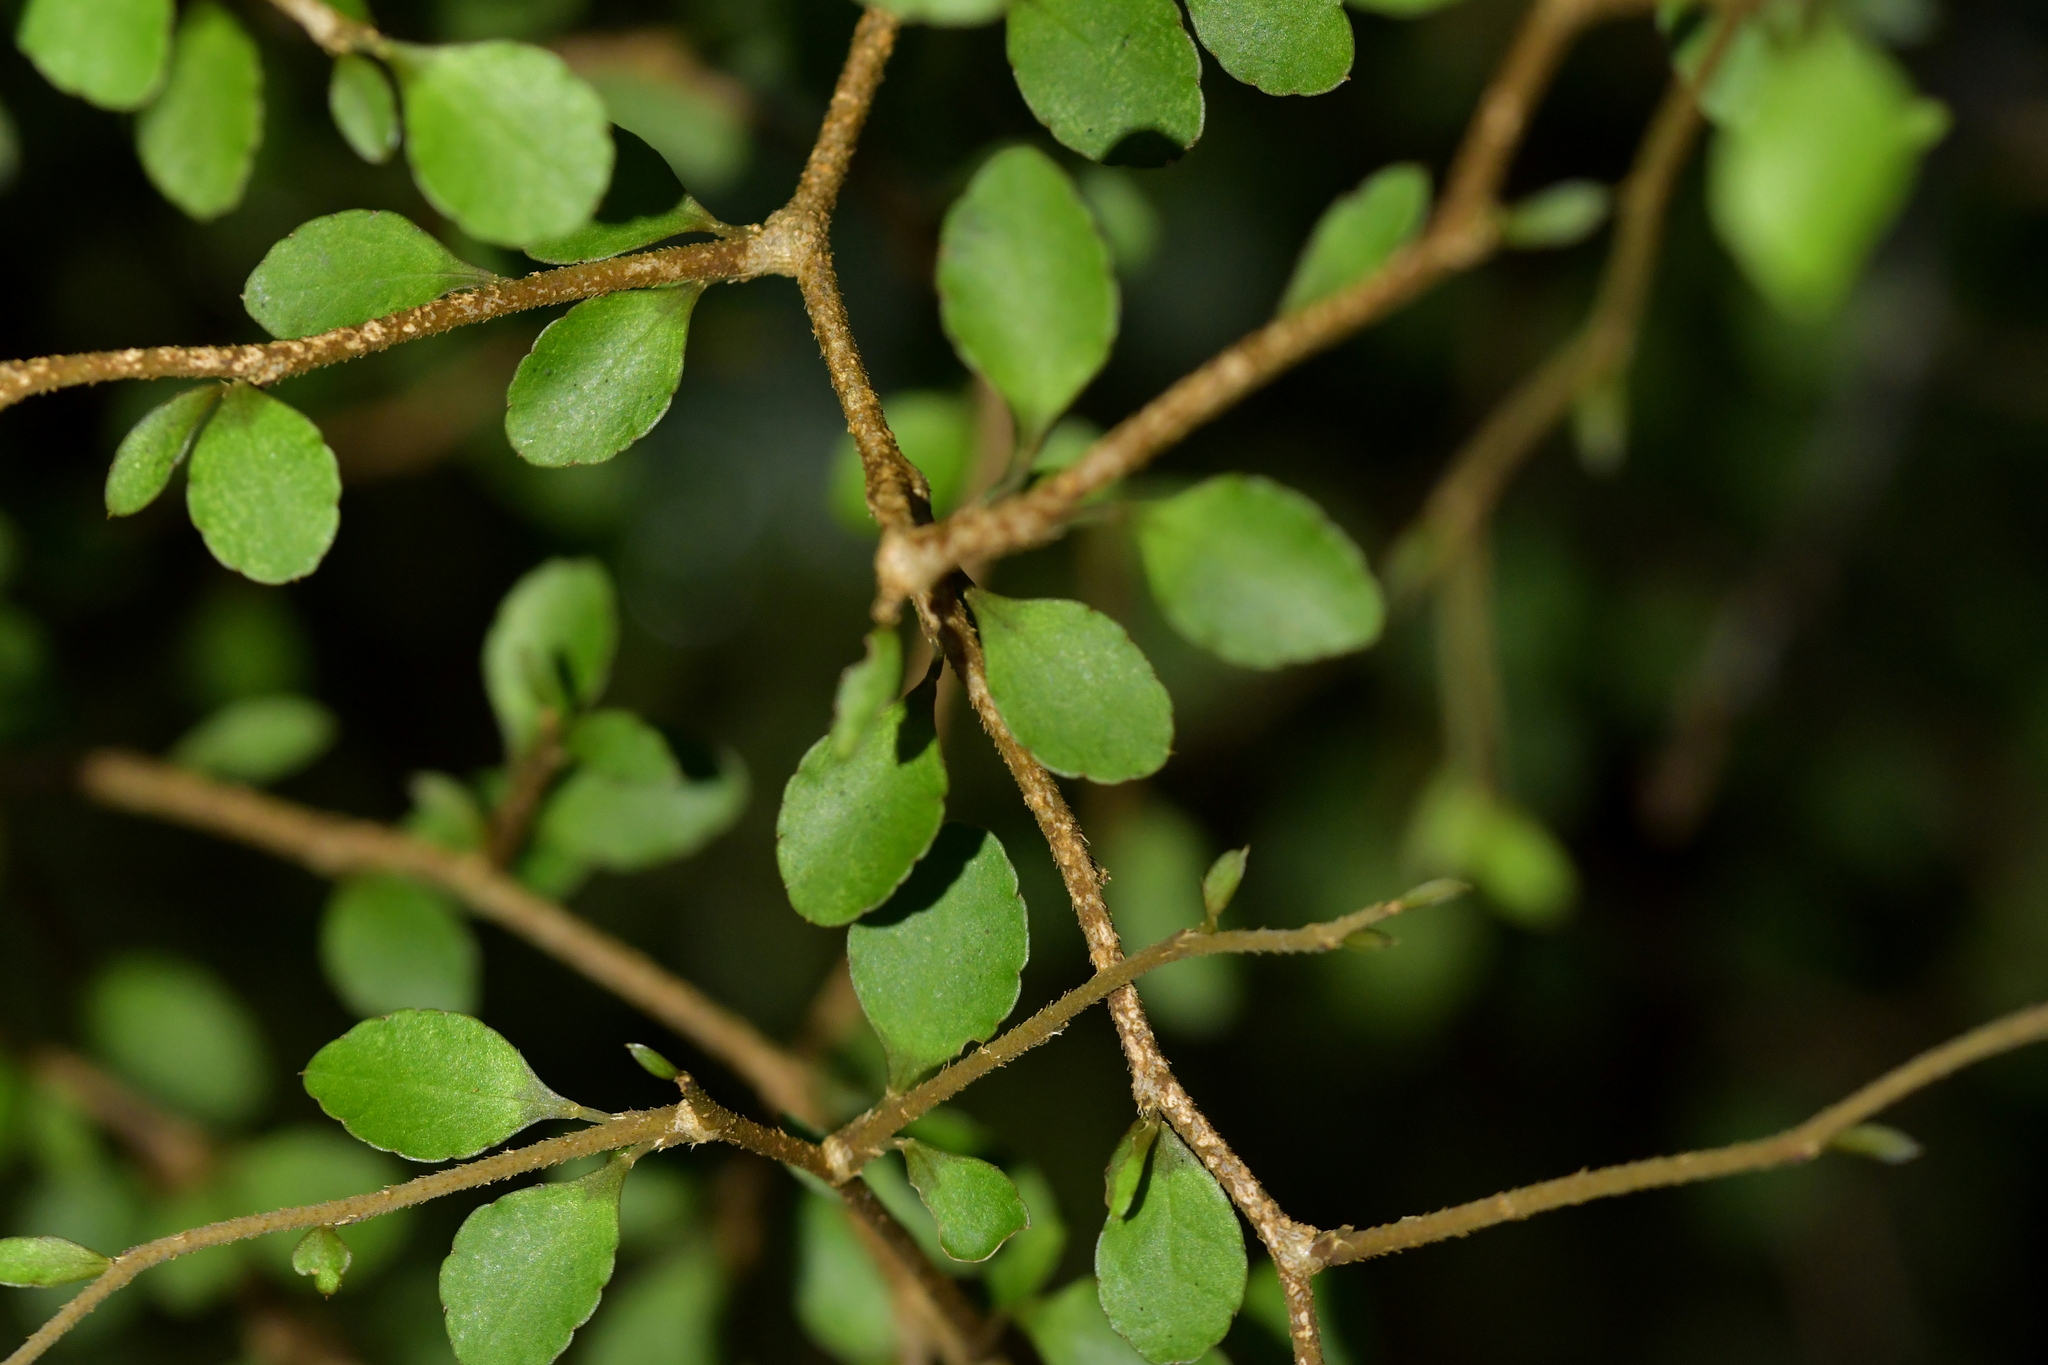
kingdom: Plantae
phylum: Tracheophyta
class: Magnoliopsida
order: Apiales
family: Araliaceae
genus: Raukaua
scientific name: Raukaua anomalus
